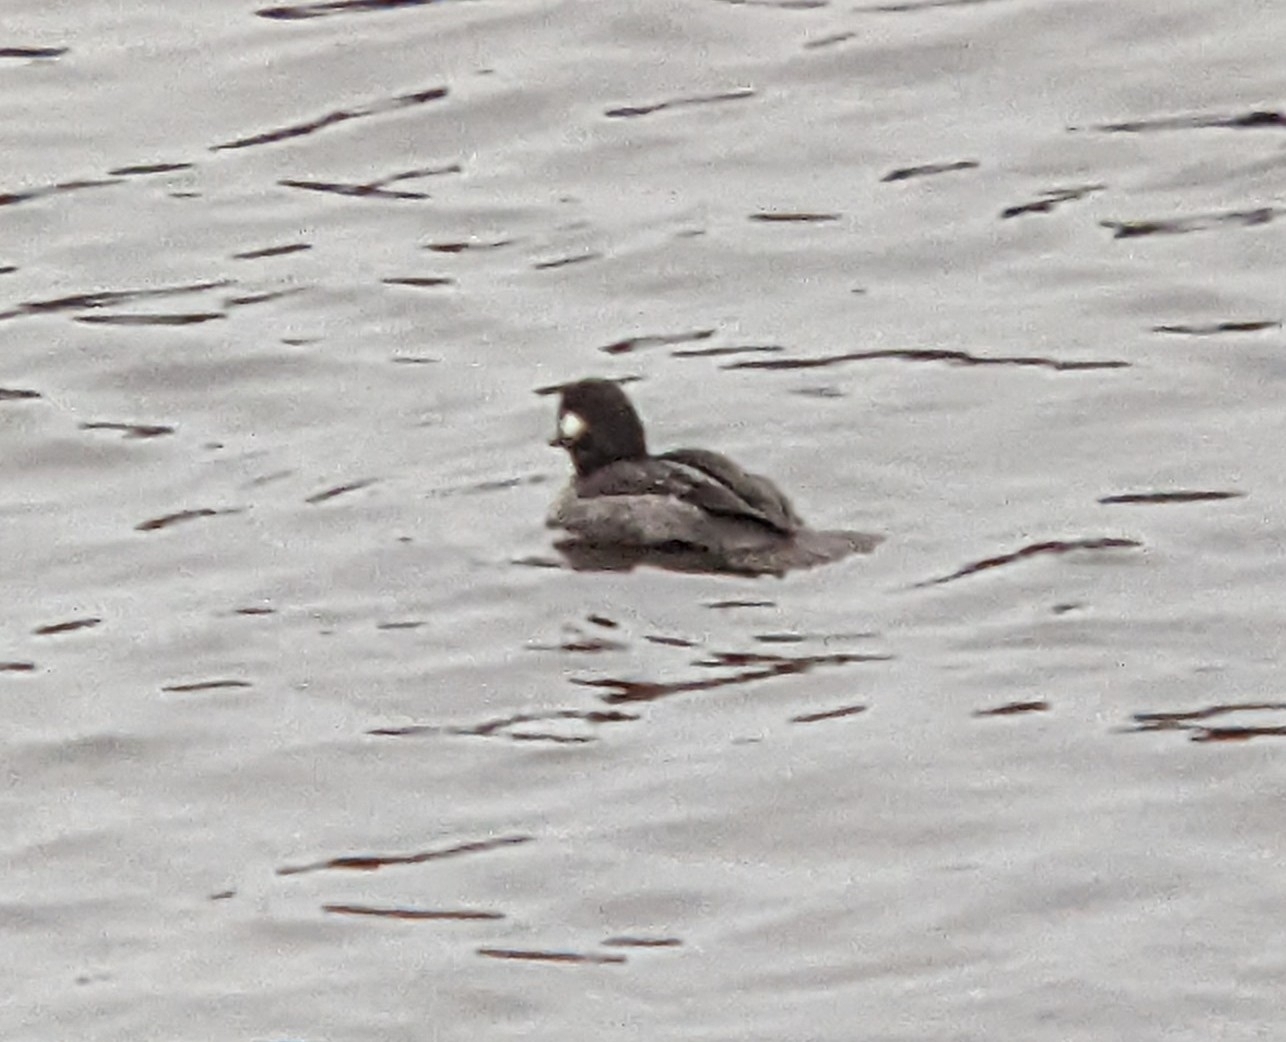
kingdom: Animalia
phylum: Chordata
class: Aves
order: Anseriformes
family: Anatidae
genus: Bucephala
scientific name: Bucephala albeola
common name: Bufflehead
